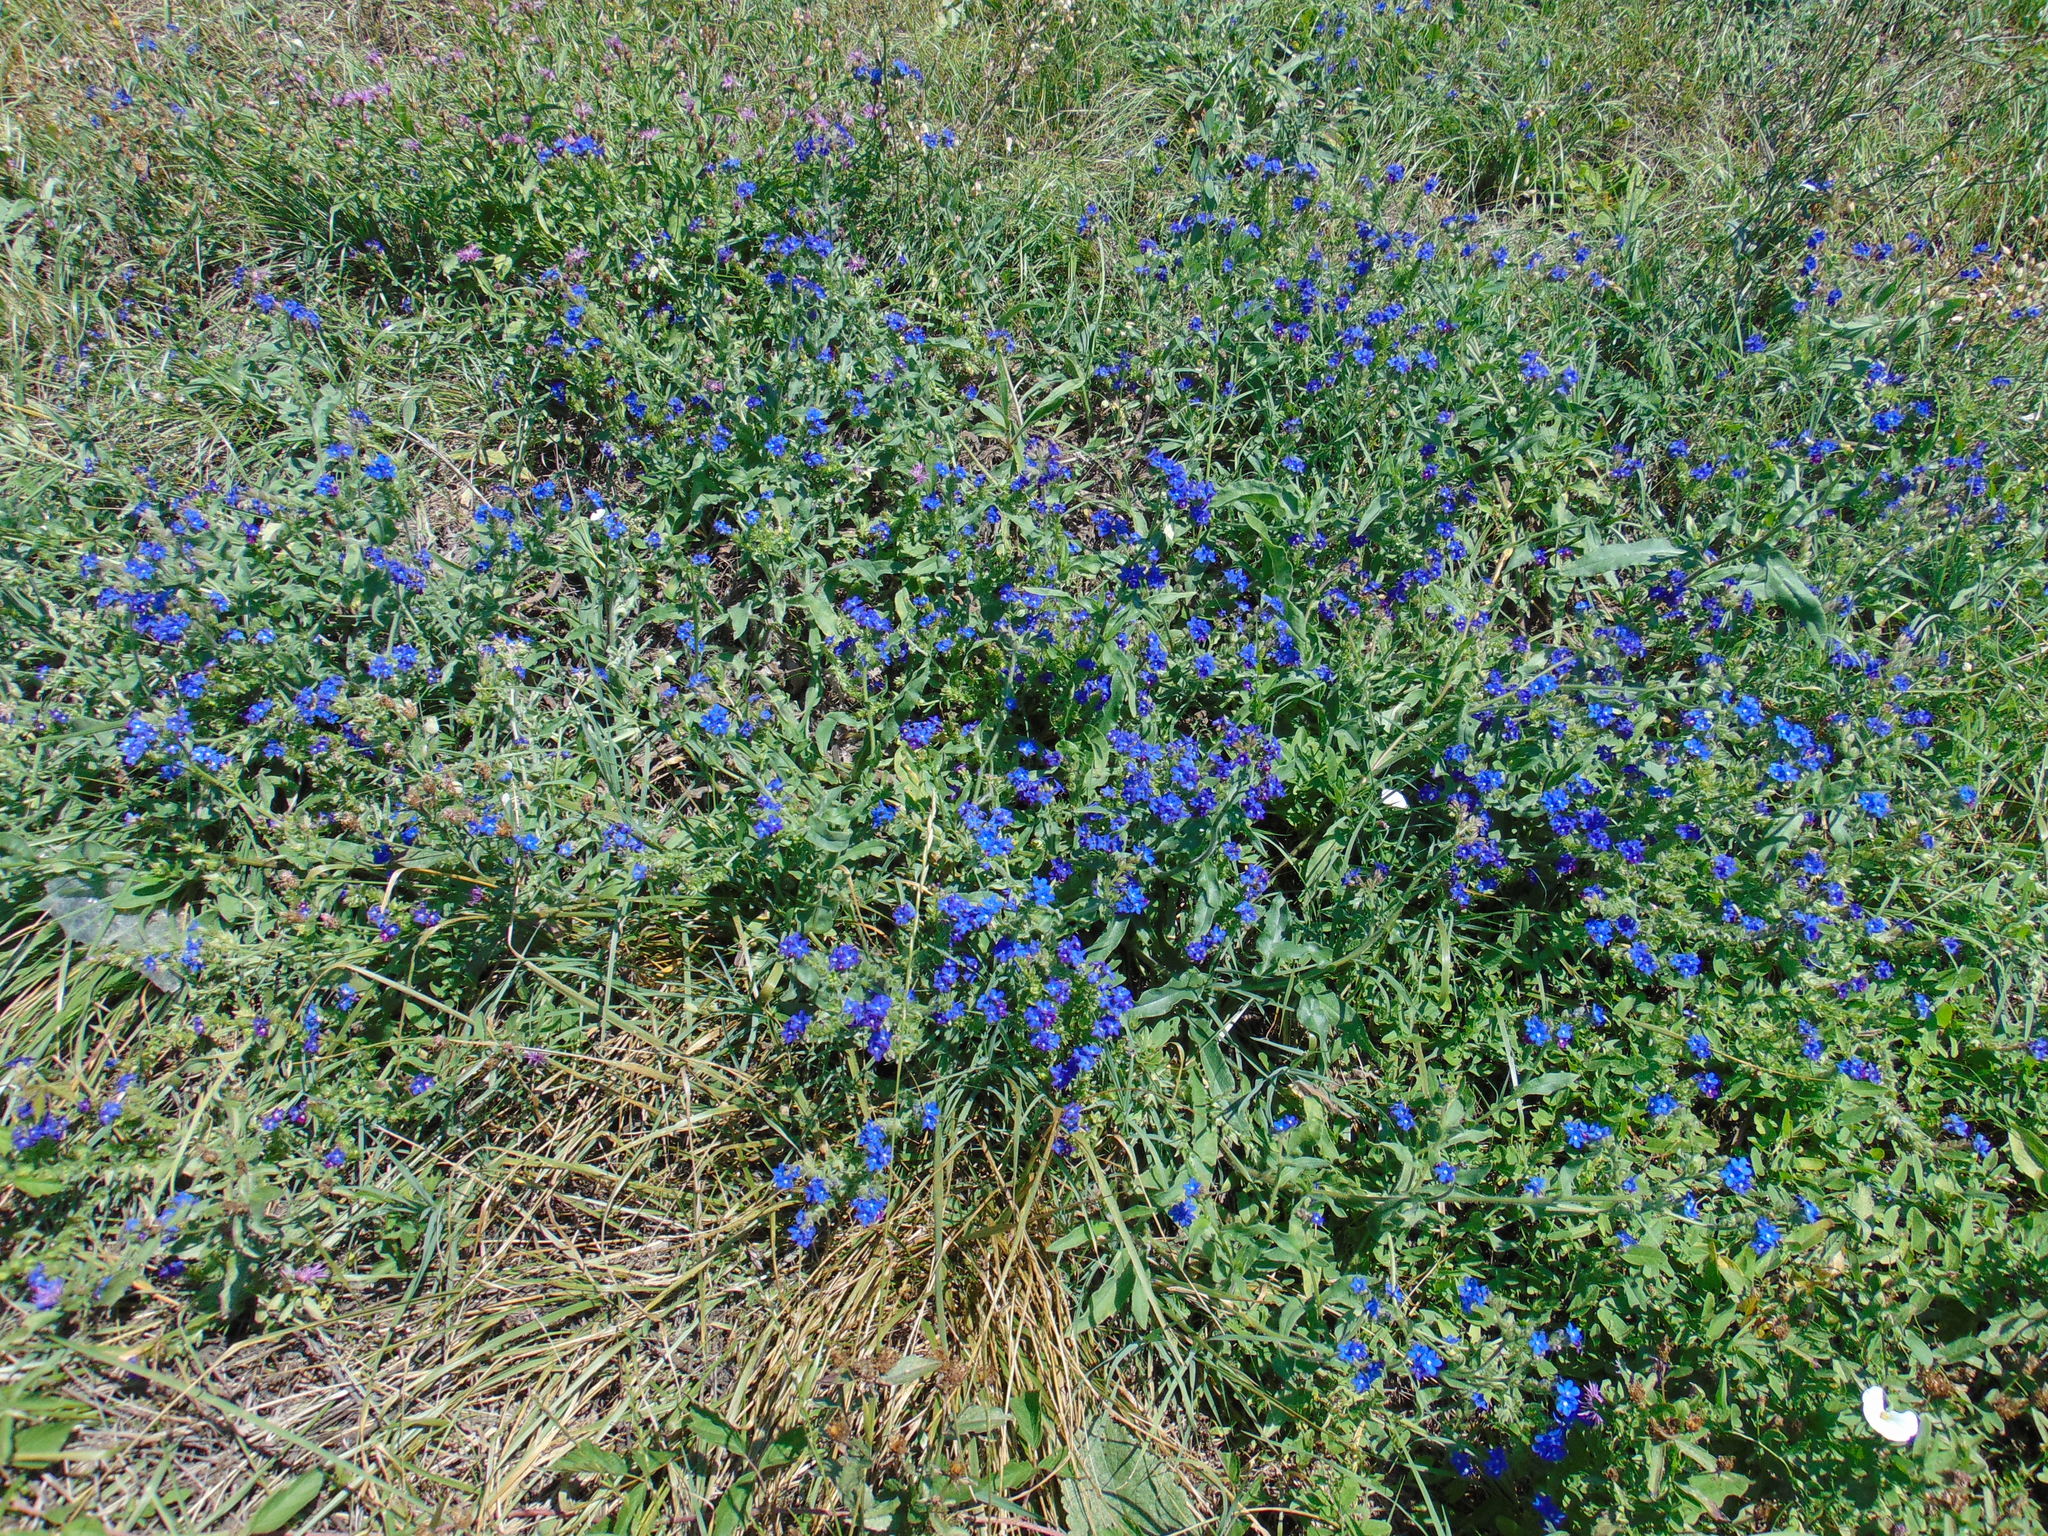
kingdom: Plantae
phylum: Tracheophyta
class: Magnoliopsida
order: Boraginales
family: Boraginaceae
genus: Anchusa
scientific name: Anchusa officinalis
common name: Alkanet
